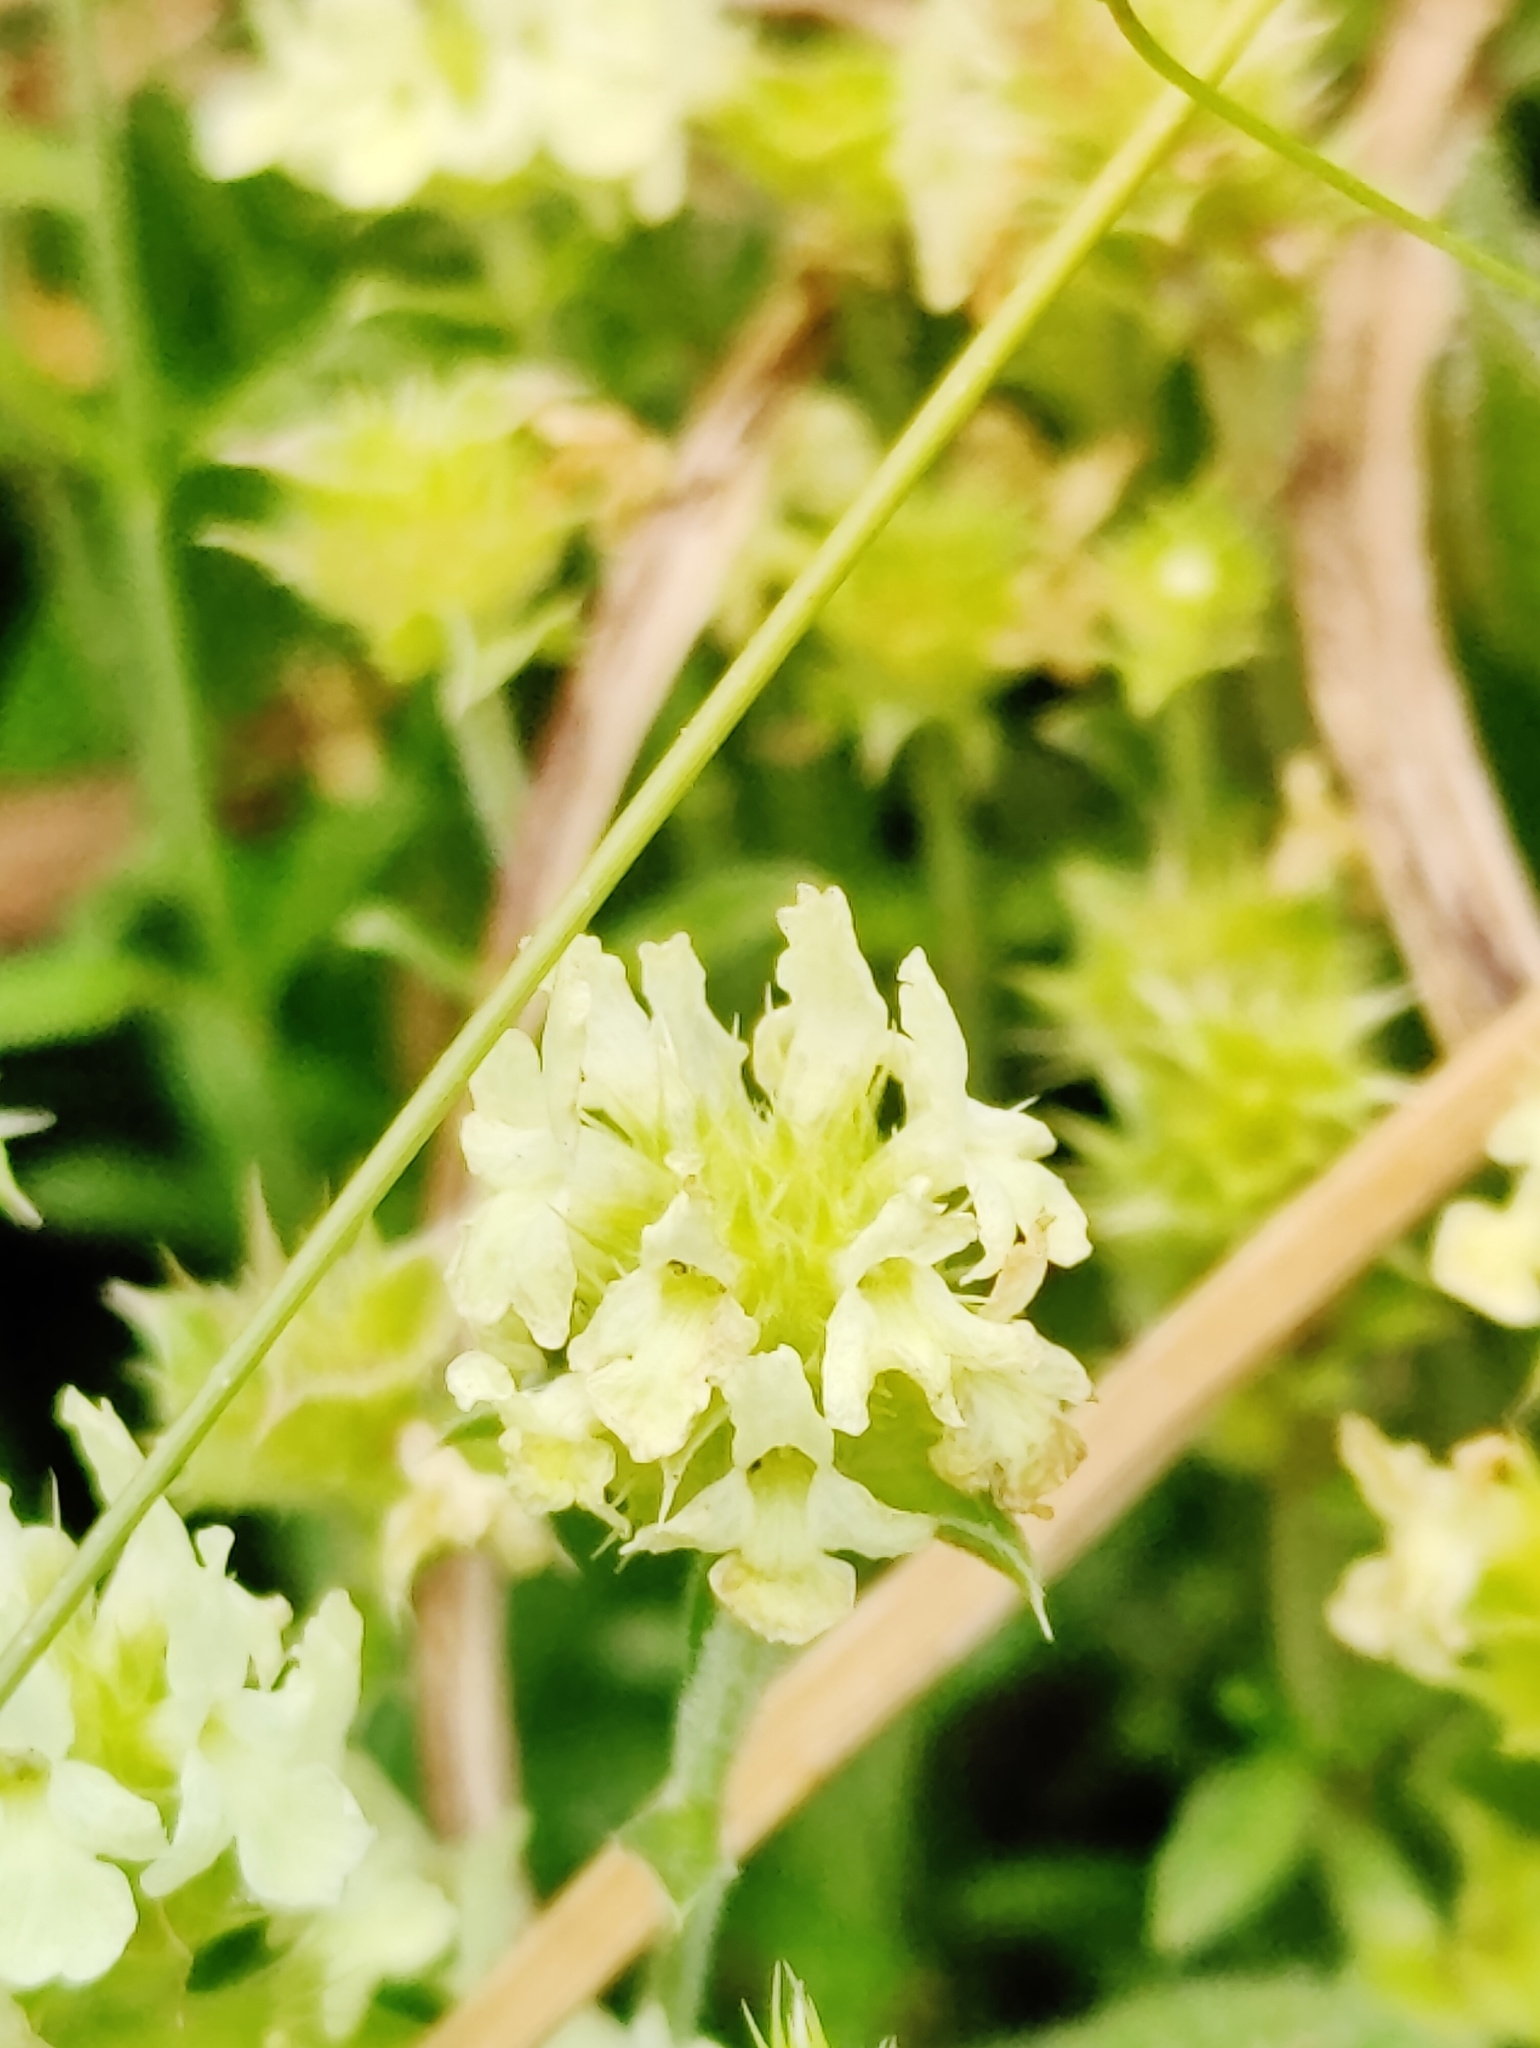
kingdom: Plantae
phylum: Tracheophyta
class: Magnoliopsida
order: Lamiales
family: Lamiaceae
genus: Sideritis
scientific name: Sideritis hyssopifolia
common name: Mountain tea
